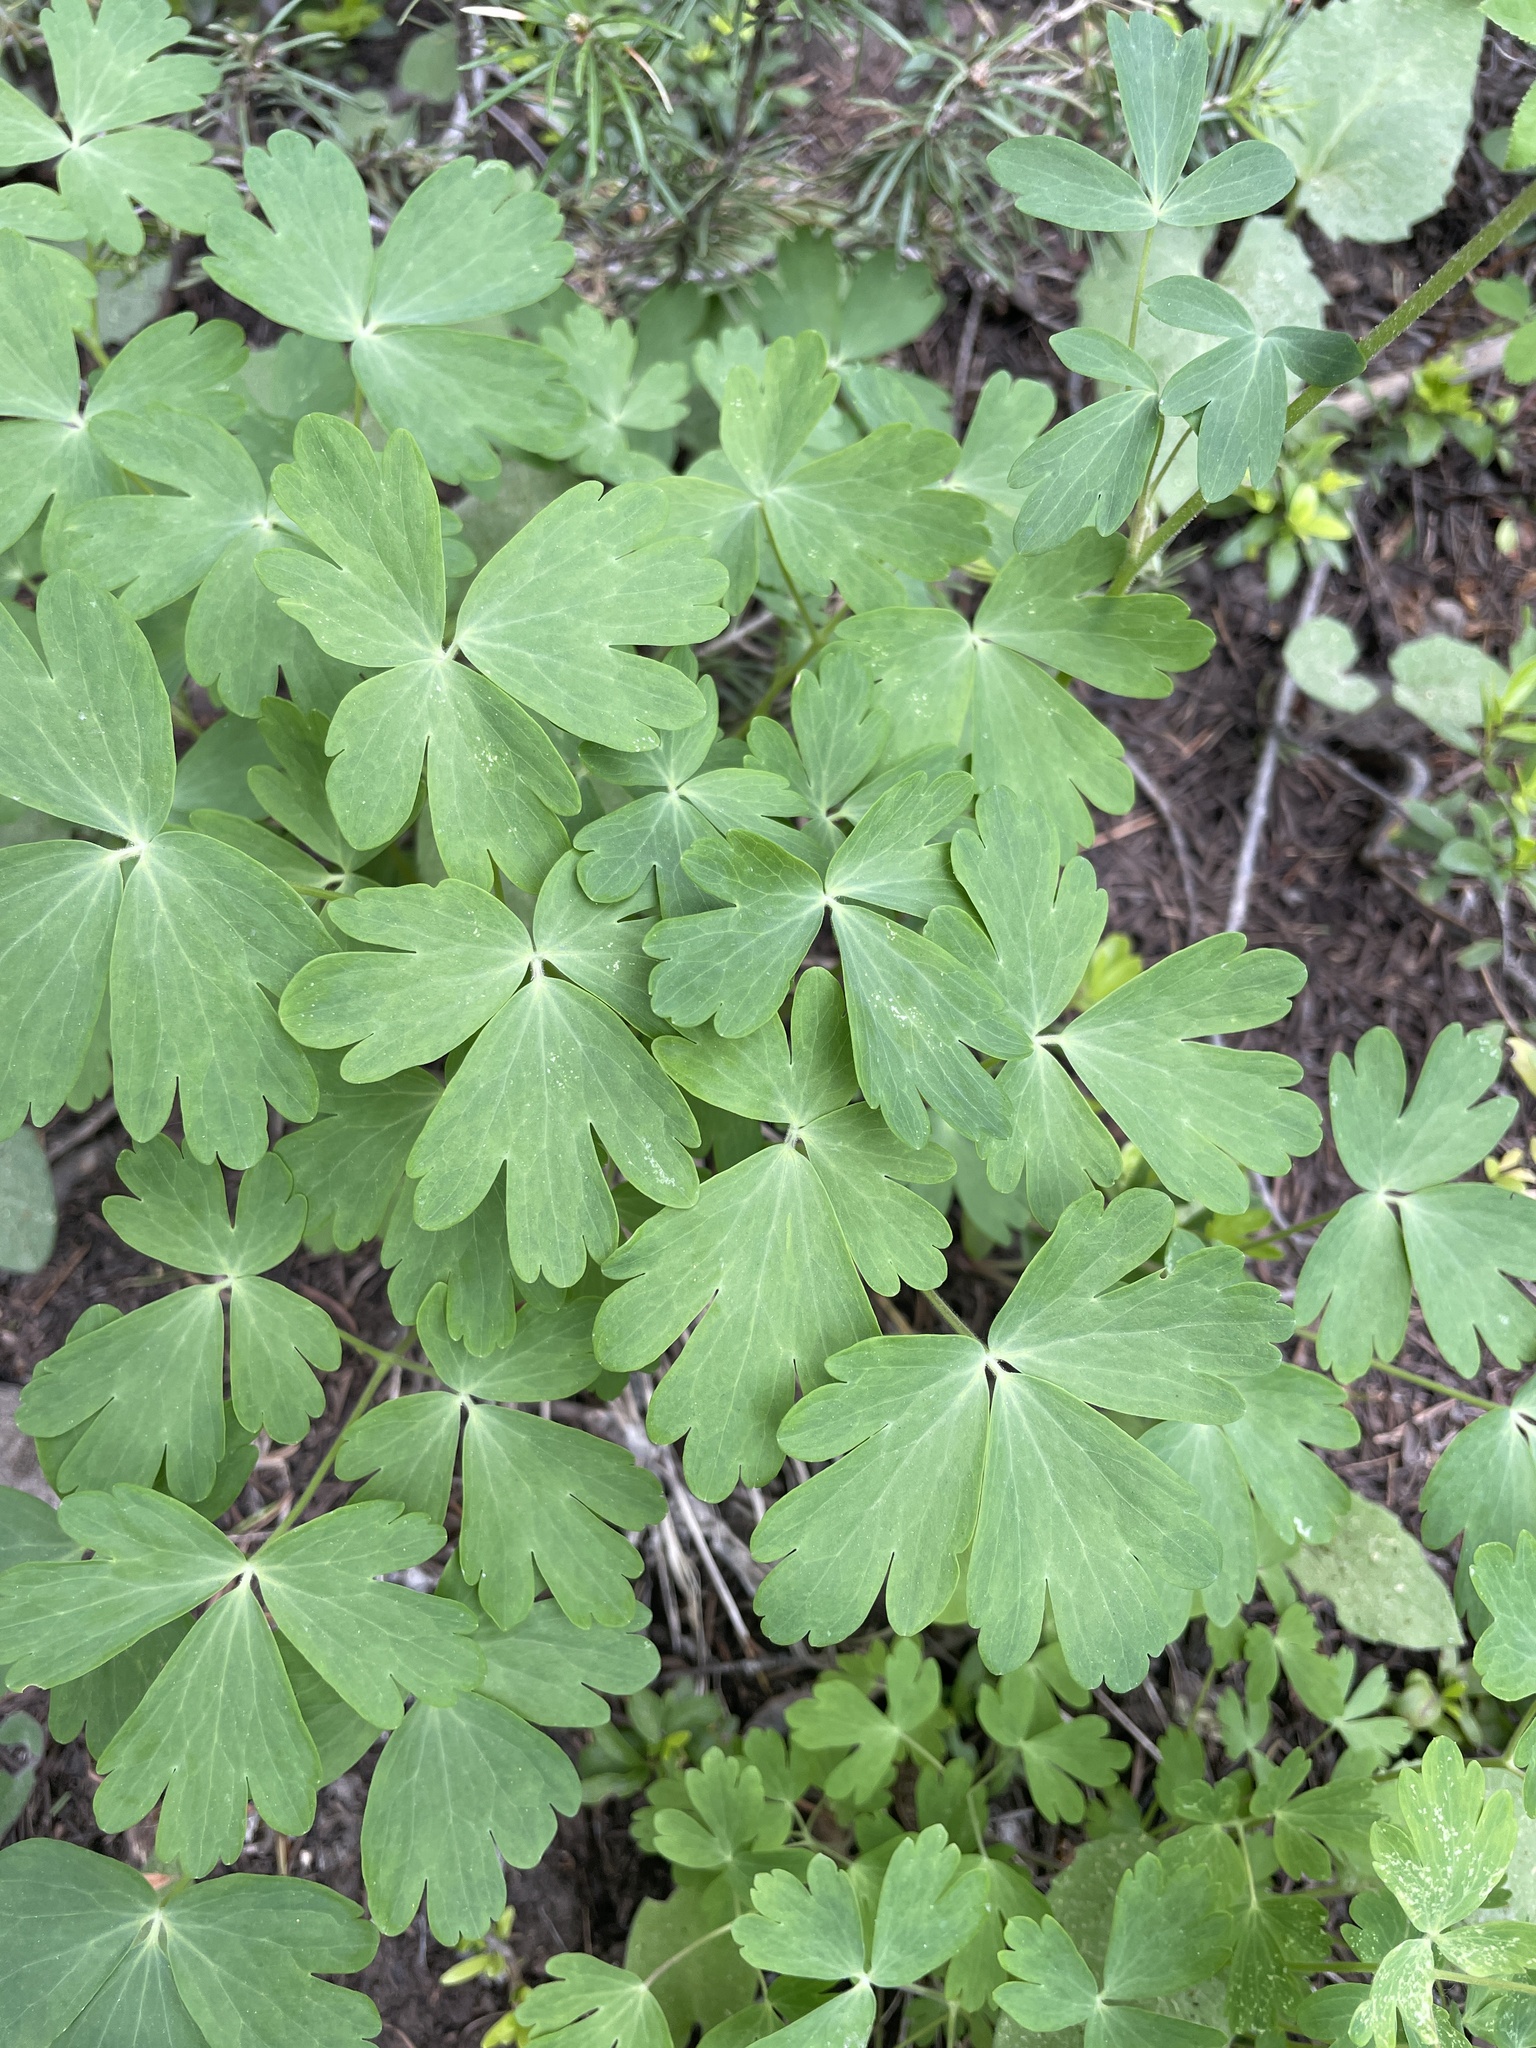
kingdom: Plantae
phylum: Tracheophyta
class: Magnoliopsida
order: Ranunculales
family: Ranunculaceae
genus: Aquilegia
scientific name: Aquilegia coerulea
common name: Rocky mountain columbine
